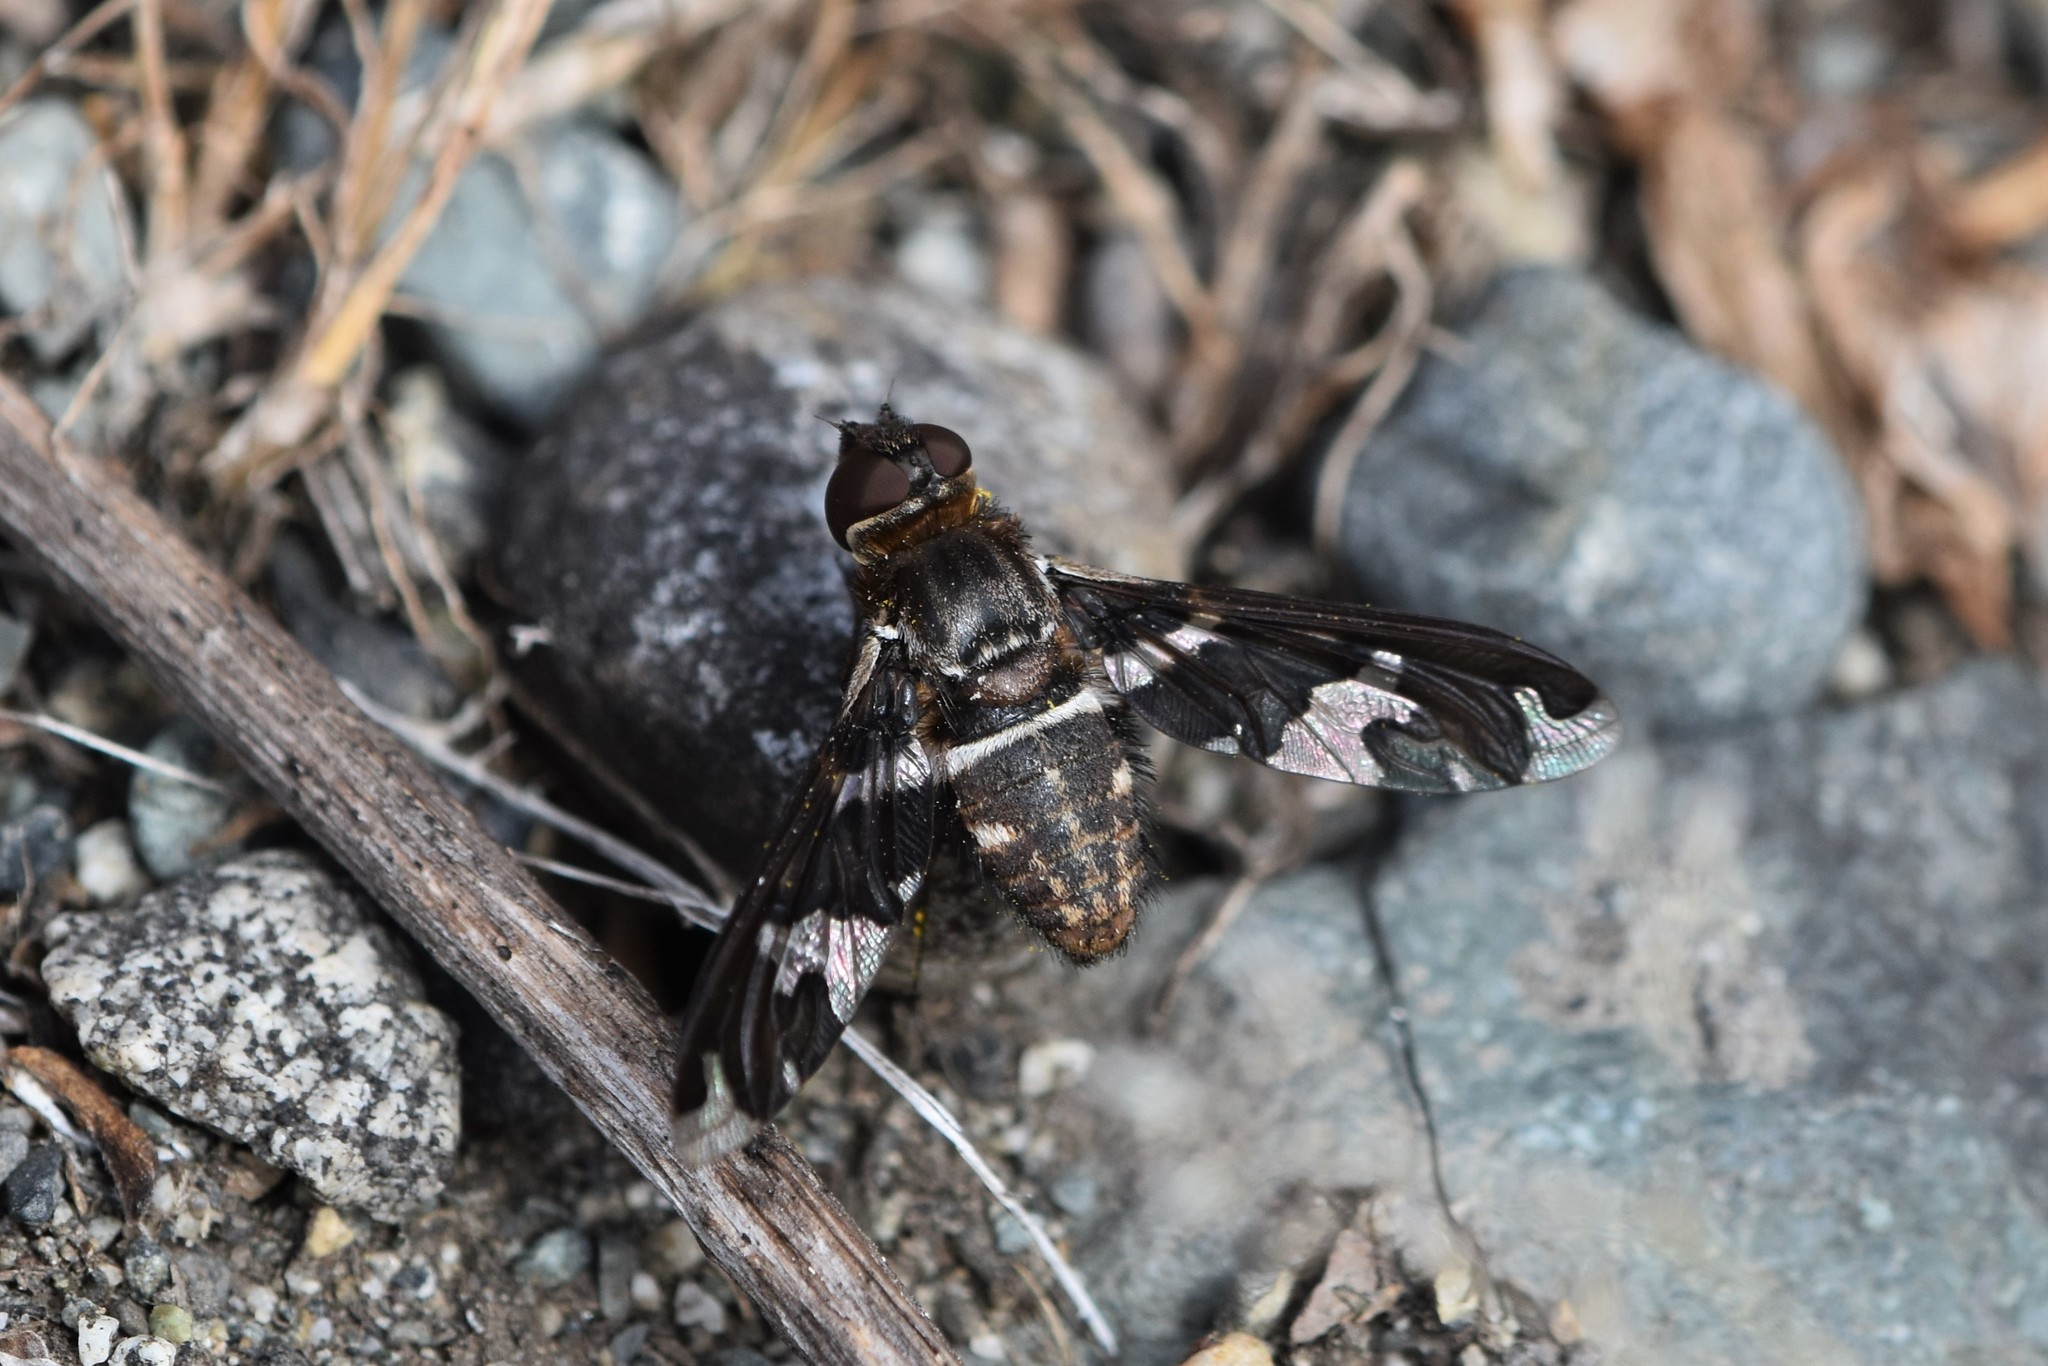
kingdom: Animalia
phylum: Arthropoda
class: Insecta
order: Diptera
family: Bombyliidae
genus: Exoprosopa
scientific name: Exoprosopa dorcadion
